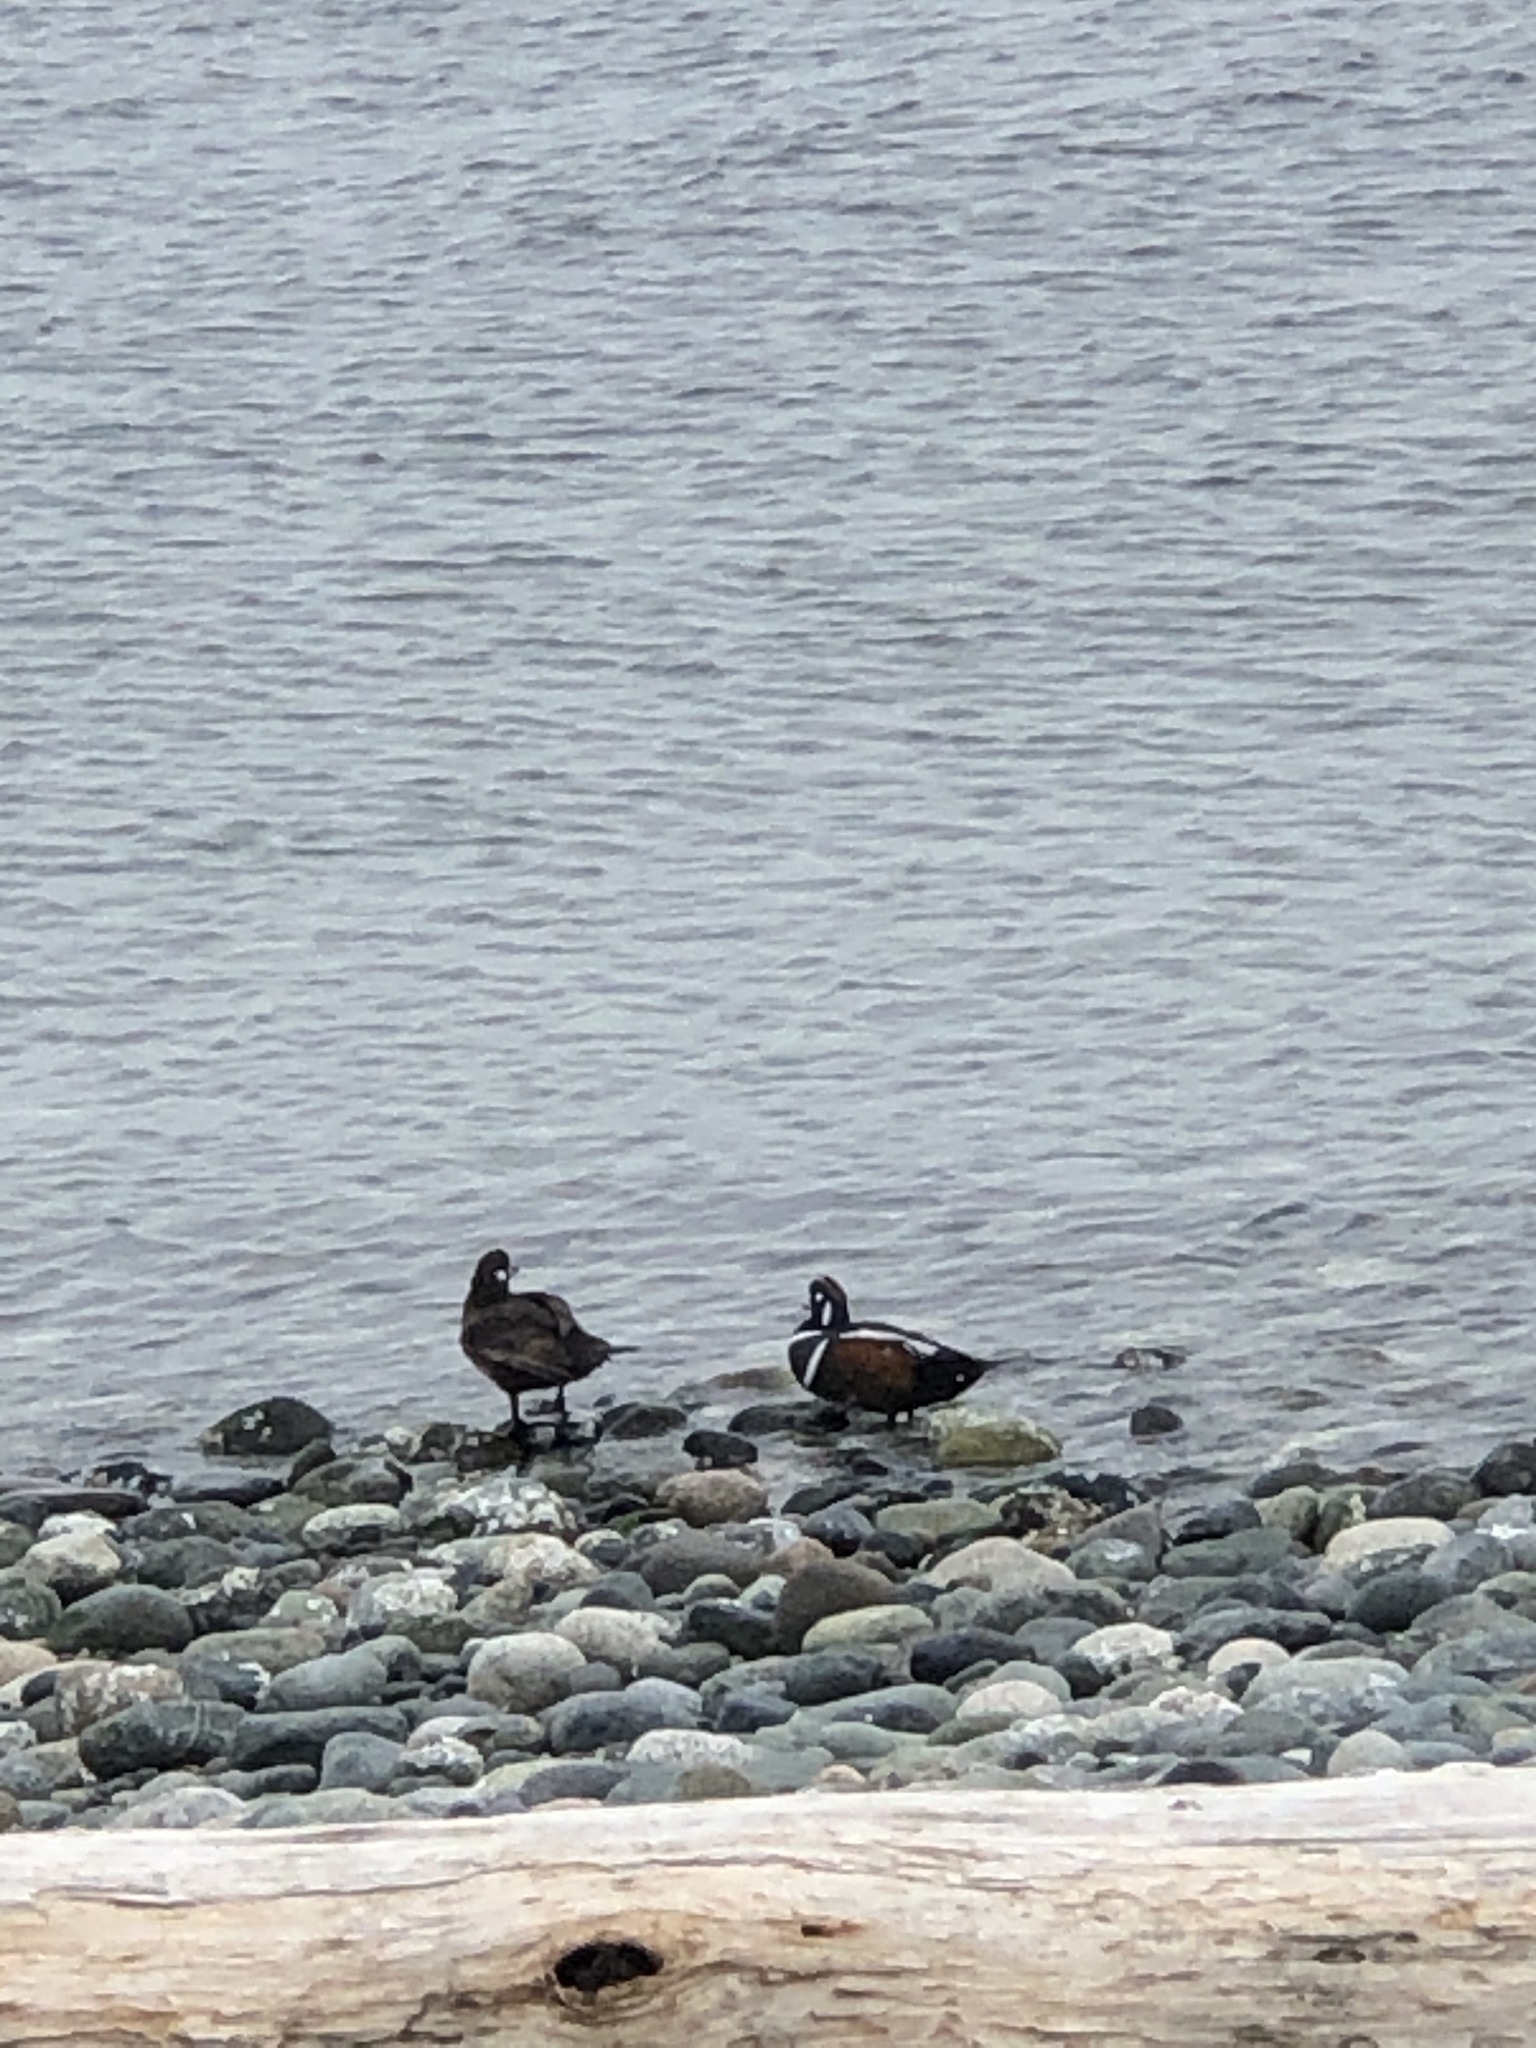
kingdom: Animalia
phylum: Chordata
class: Aves
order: Anseriformes
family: Anatidae
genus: Histrionicus
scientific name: Histrionicus histrionicus
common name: Harlequin duck
